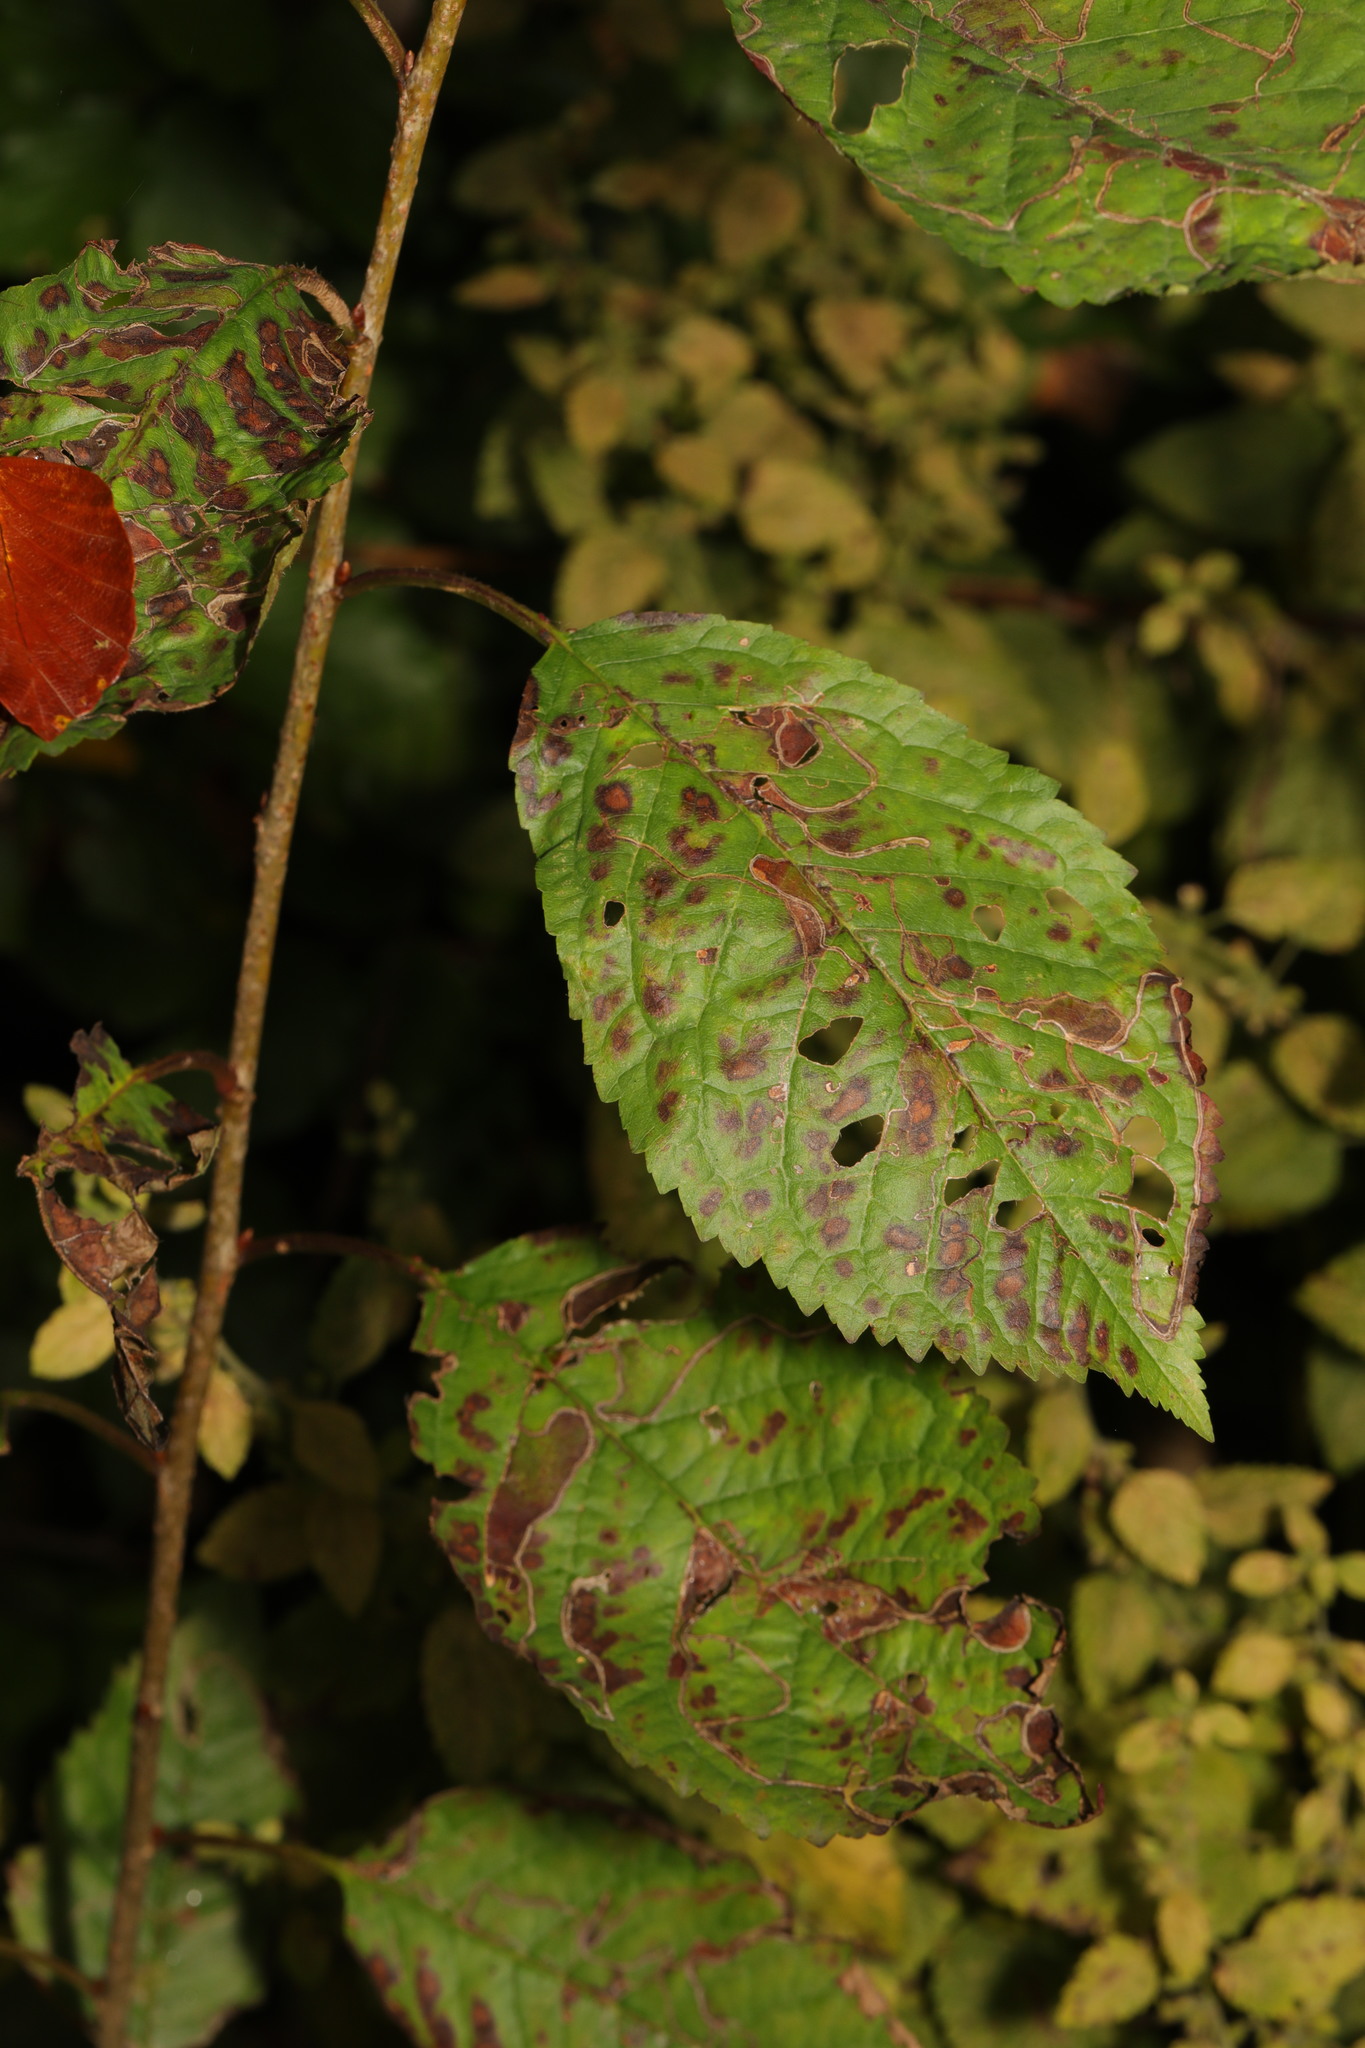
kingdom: Plantae
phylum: Tracheophyta
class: Magnoliopsida
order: Rosales
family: Rosaceae
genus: Prunus
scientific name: Prunus avium
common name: Sweet cherry
